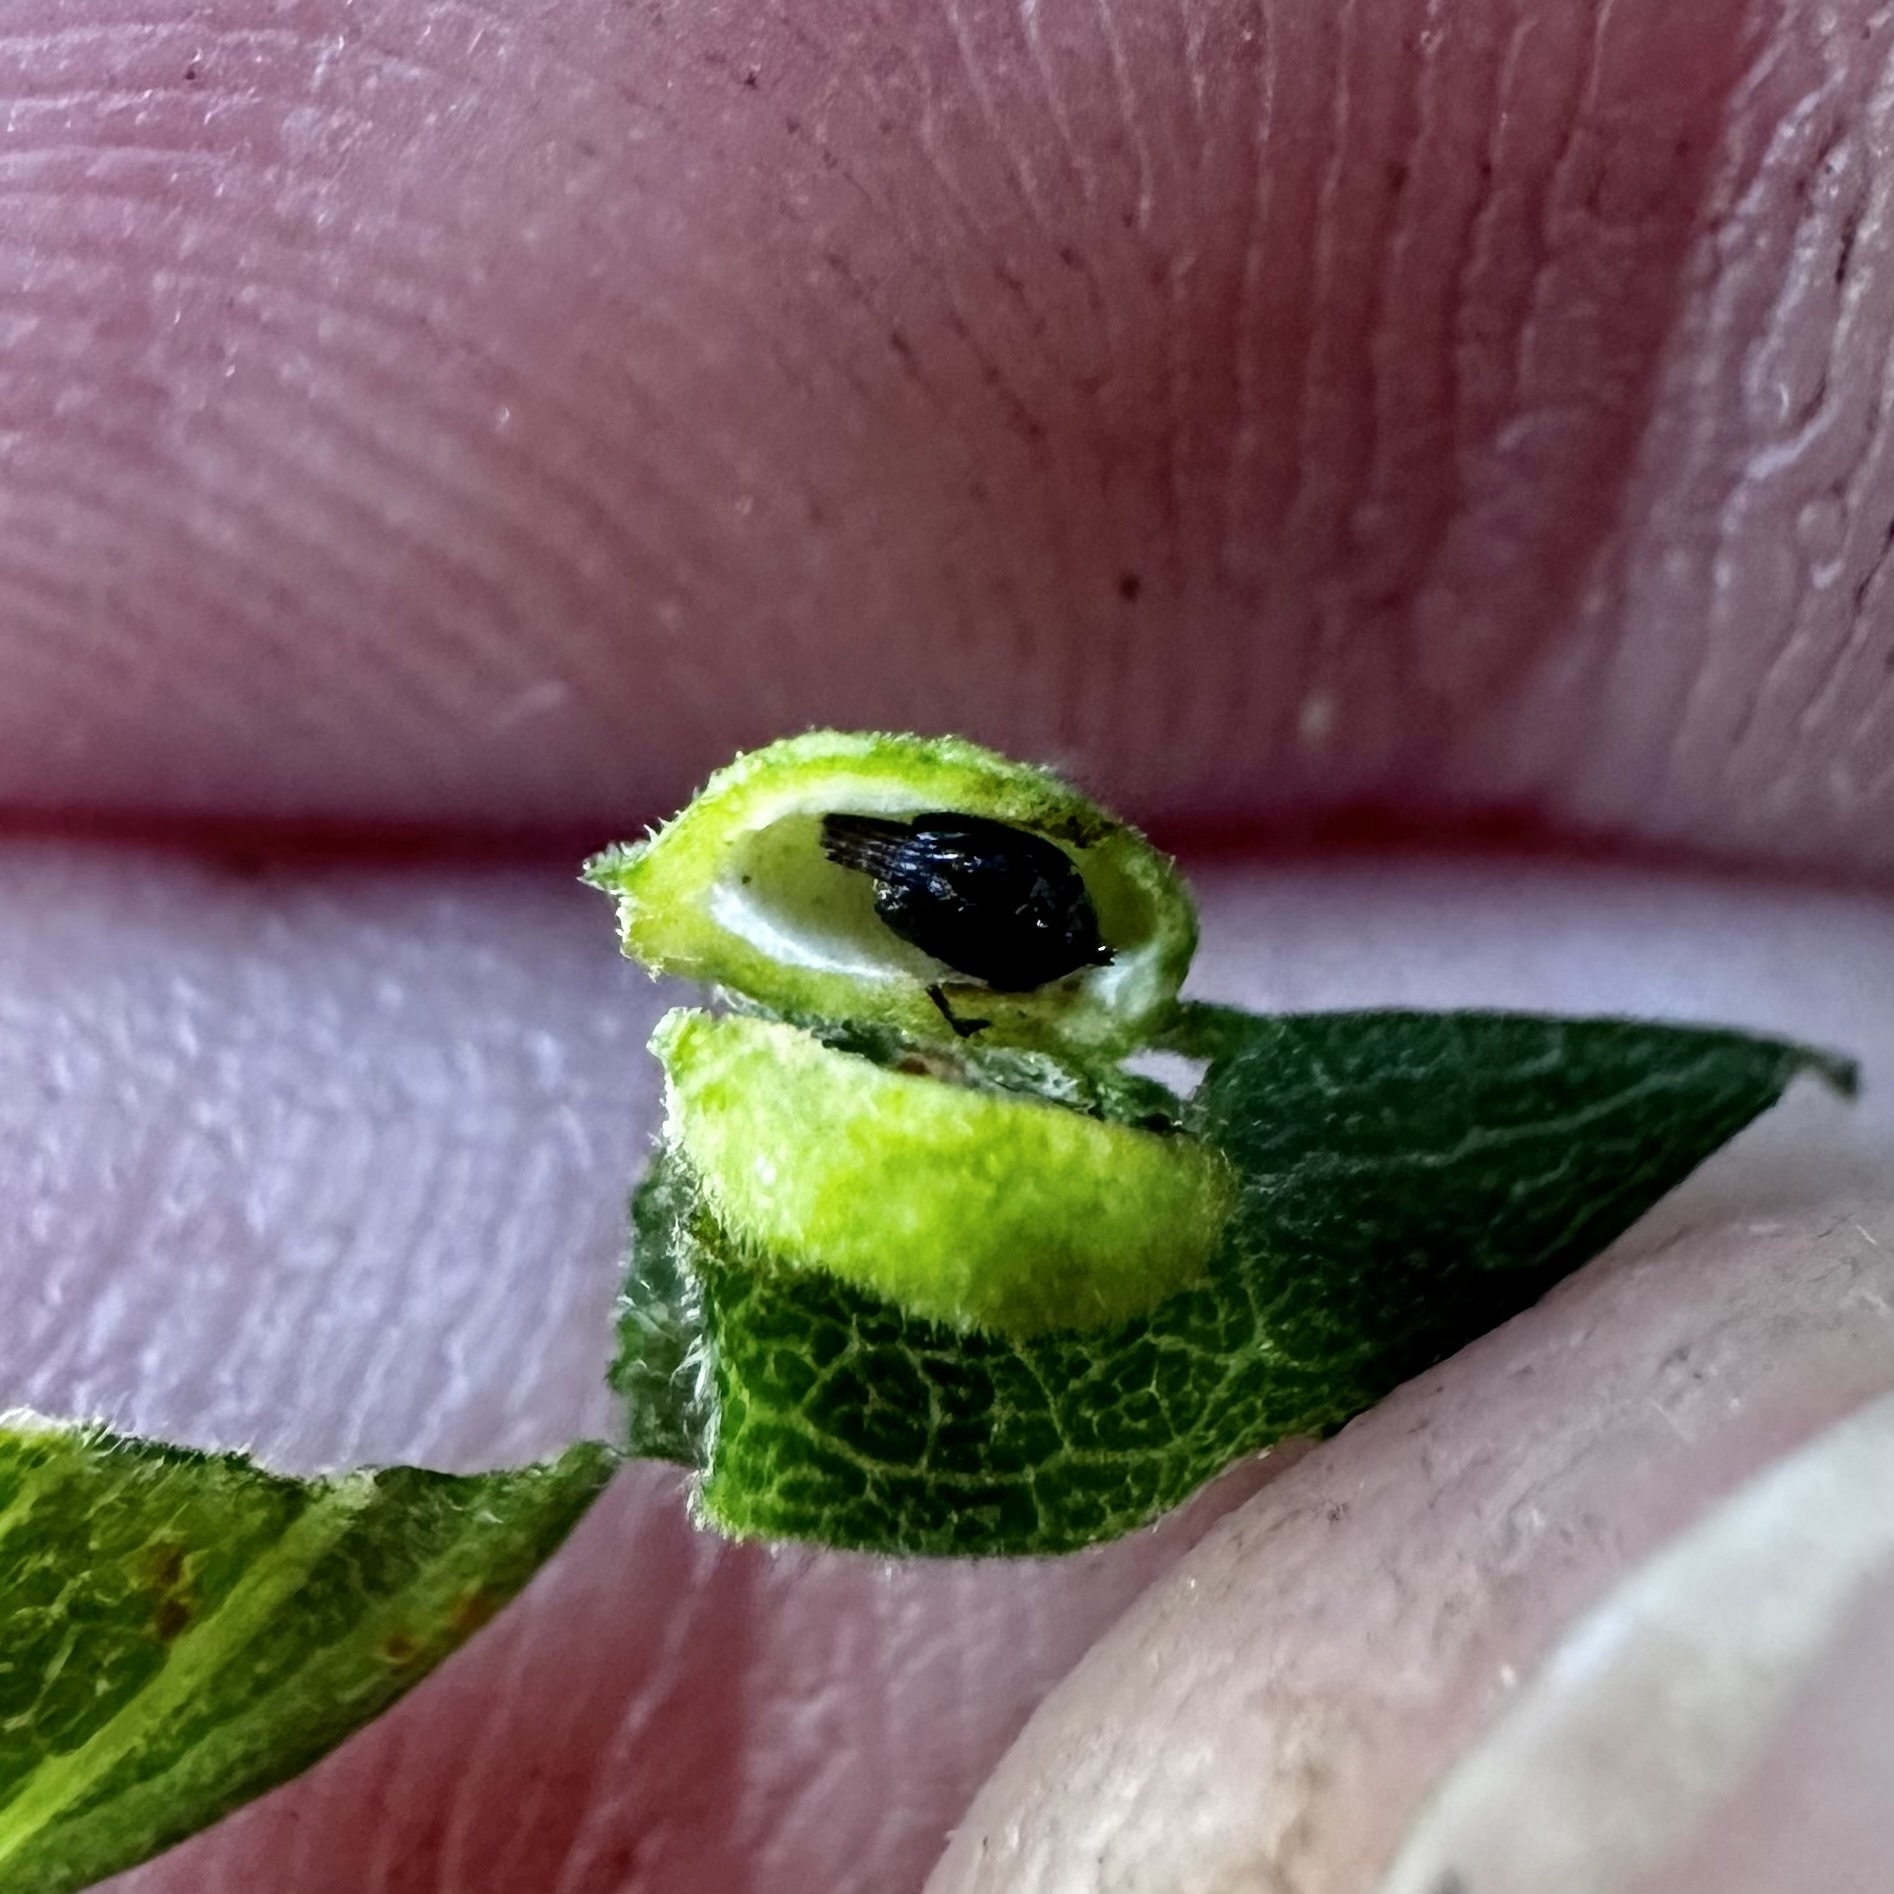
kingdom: Animalia
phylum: Arthropoda
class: Insecta
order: Diptera
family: Cecidomyiidae
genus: Asphondylia
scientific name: Asphondylia solidaginis
